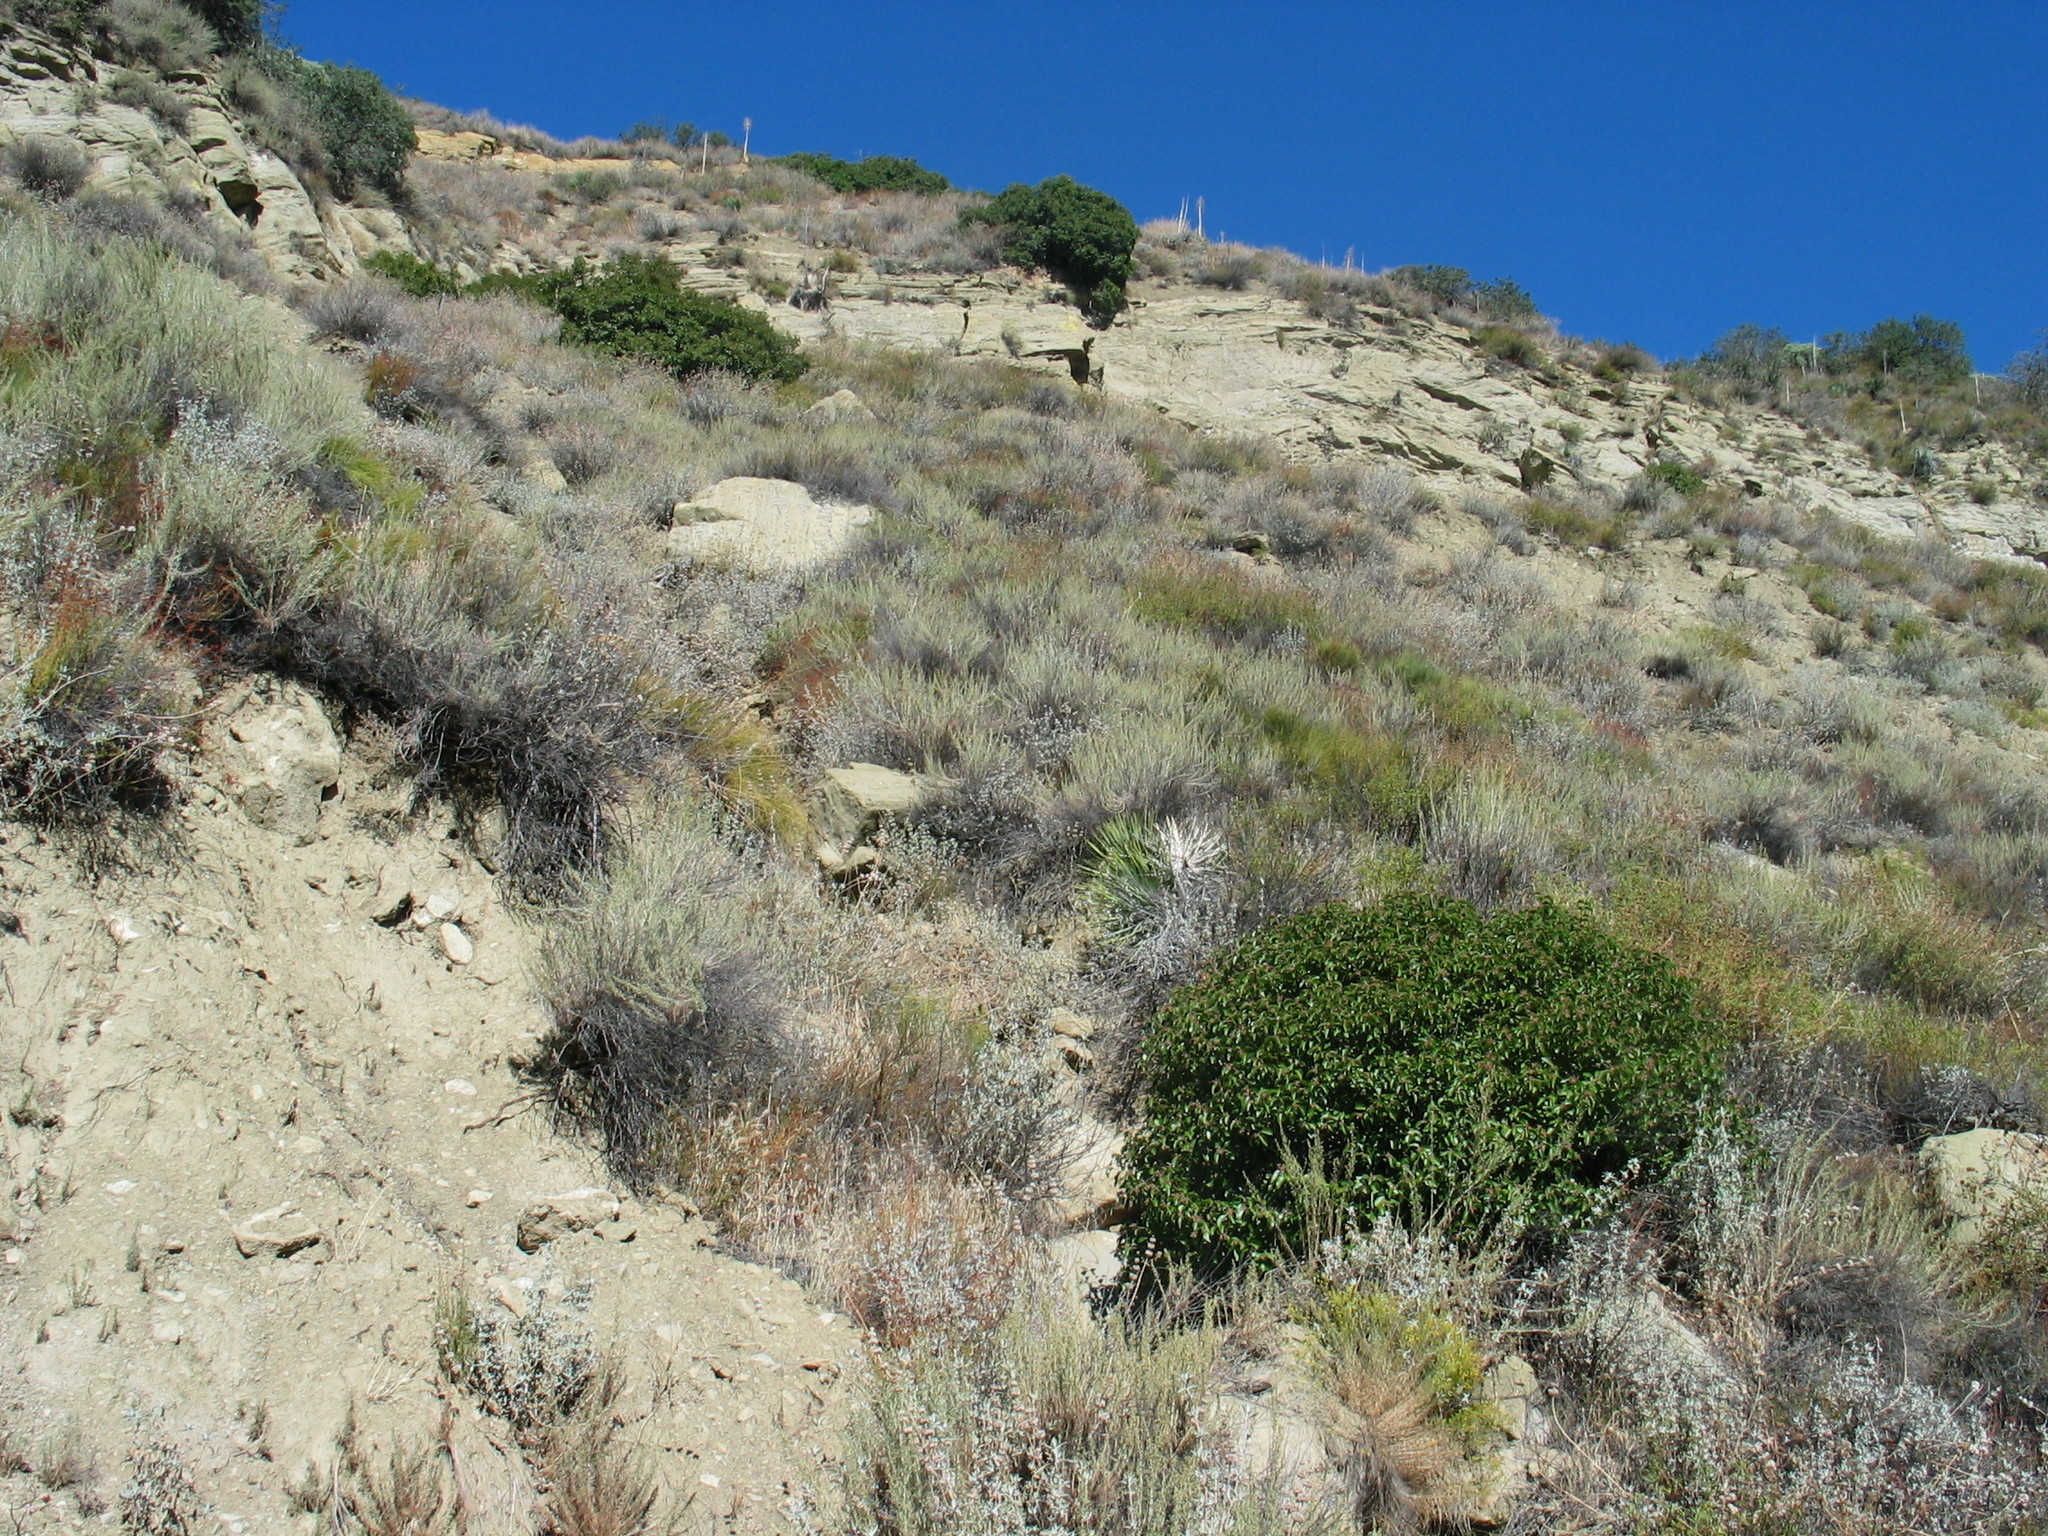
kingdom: Plantae
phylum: Tracheophyta
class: Magnoliopsida
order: Sapindales
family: Anacardiaceae
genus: Rhus
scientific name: Rhus ovata
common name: Sugar sumac
